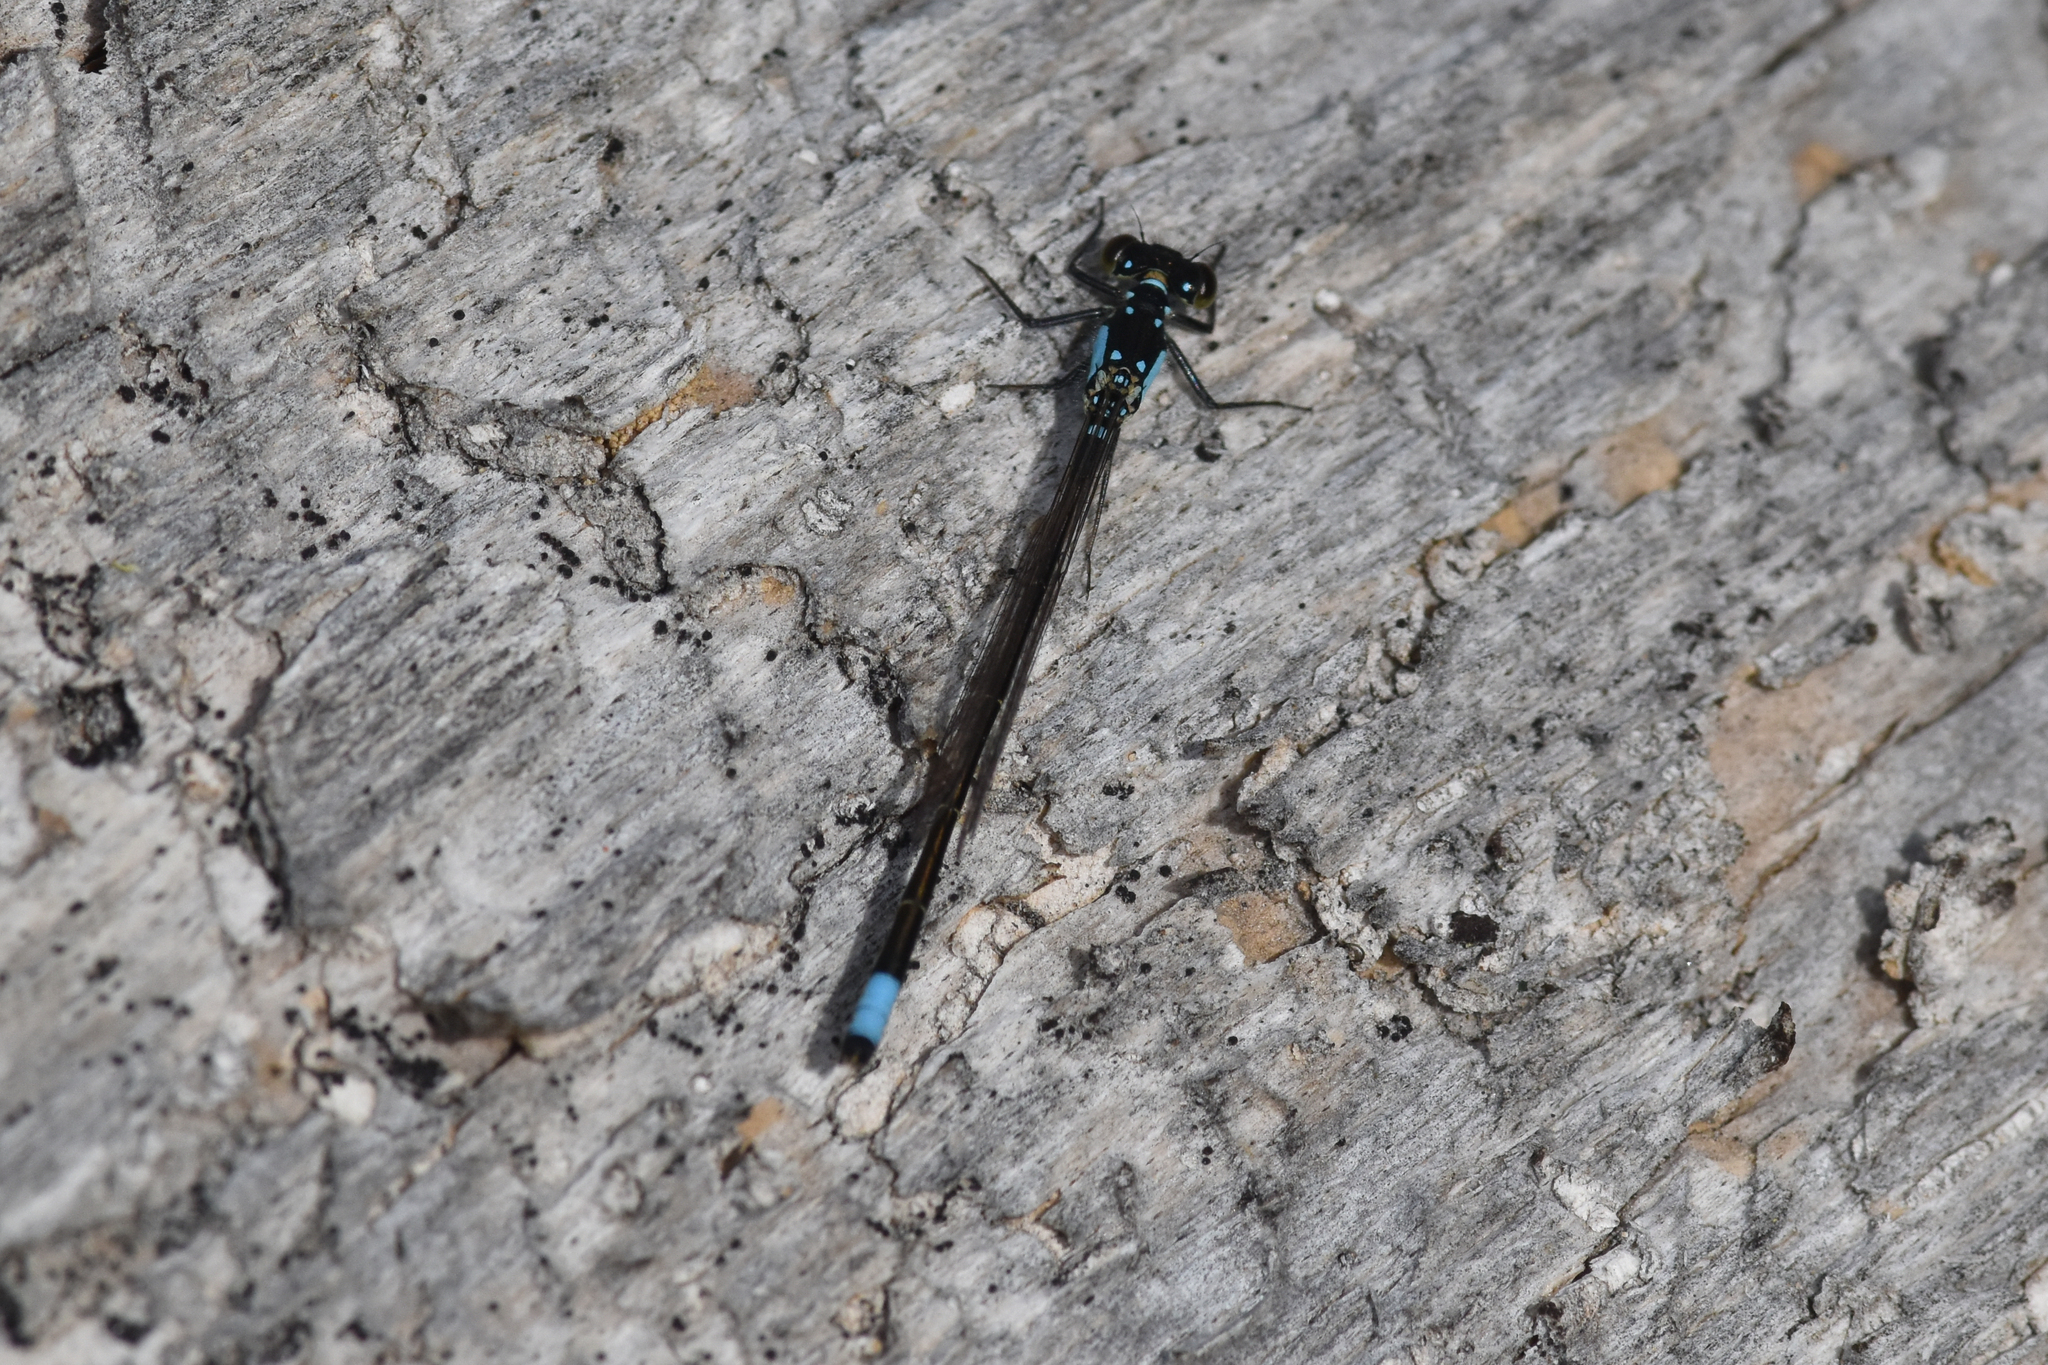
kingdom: Animalia
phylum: Arthropoda
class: Insecta
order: Odonata
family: Coenagrionidae
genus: Ischnura
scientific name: Ischnura cervula
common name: Pacific forktail
